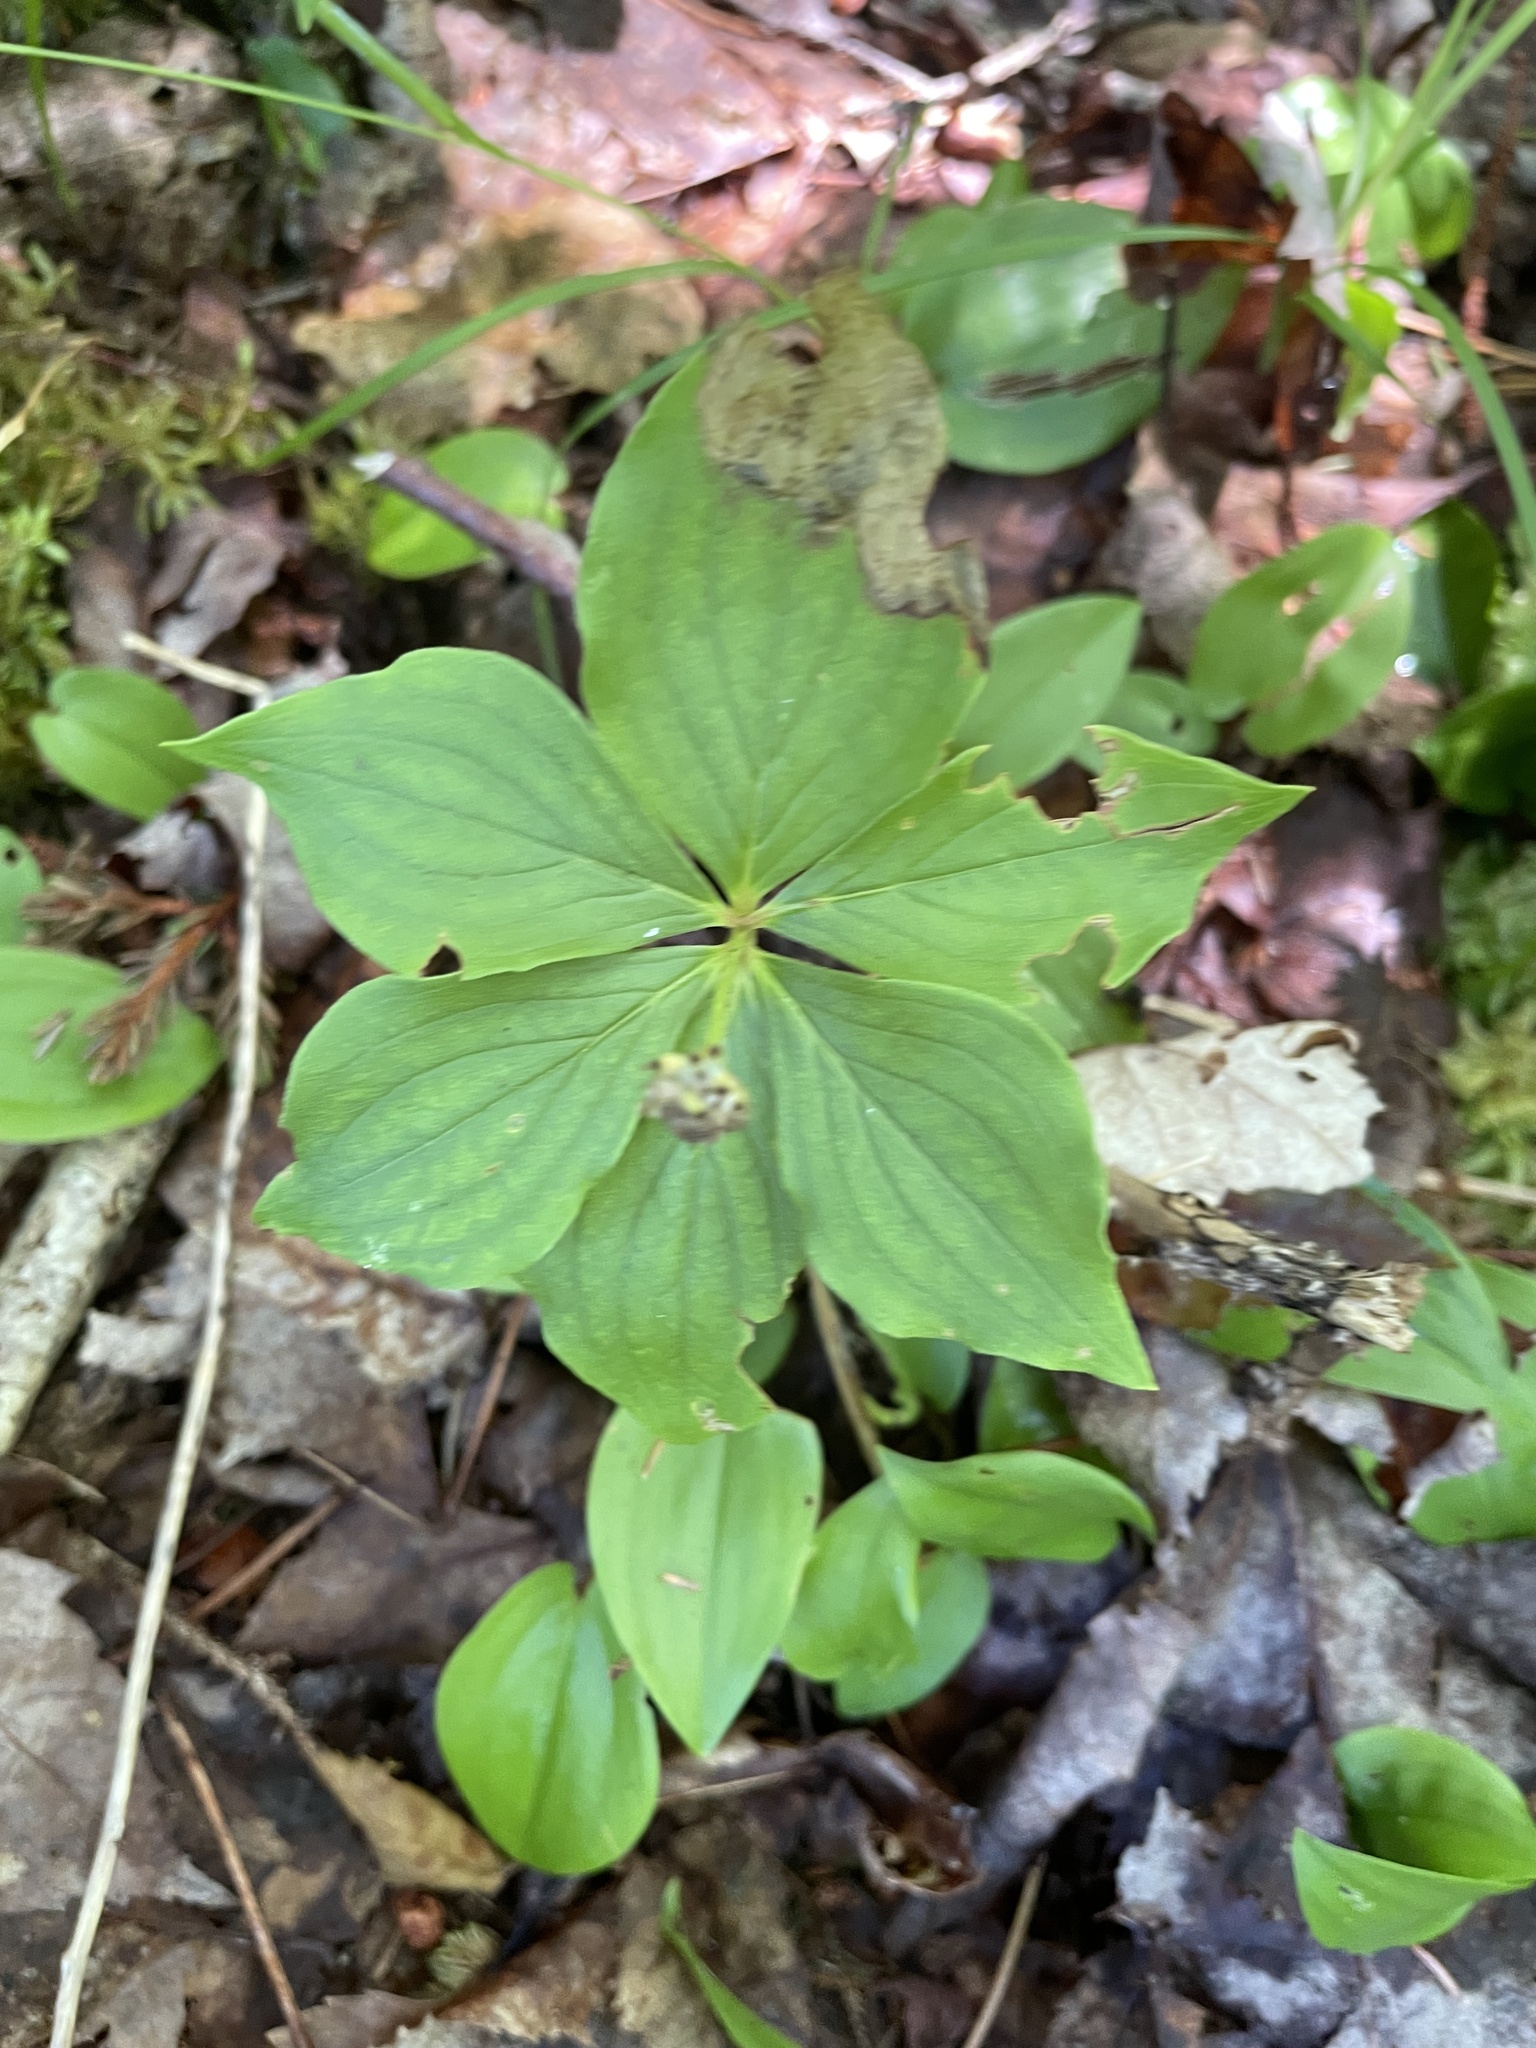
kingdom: Plantae
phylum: Tracheophyta
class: Magnoliopsida
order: Cornales
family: Cornaceae
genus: Cornus
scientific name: Cornus canadensis
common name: Creeping dogwood
